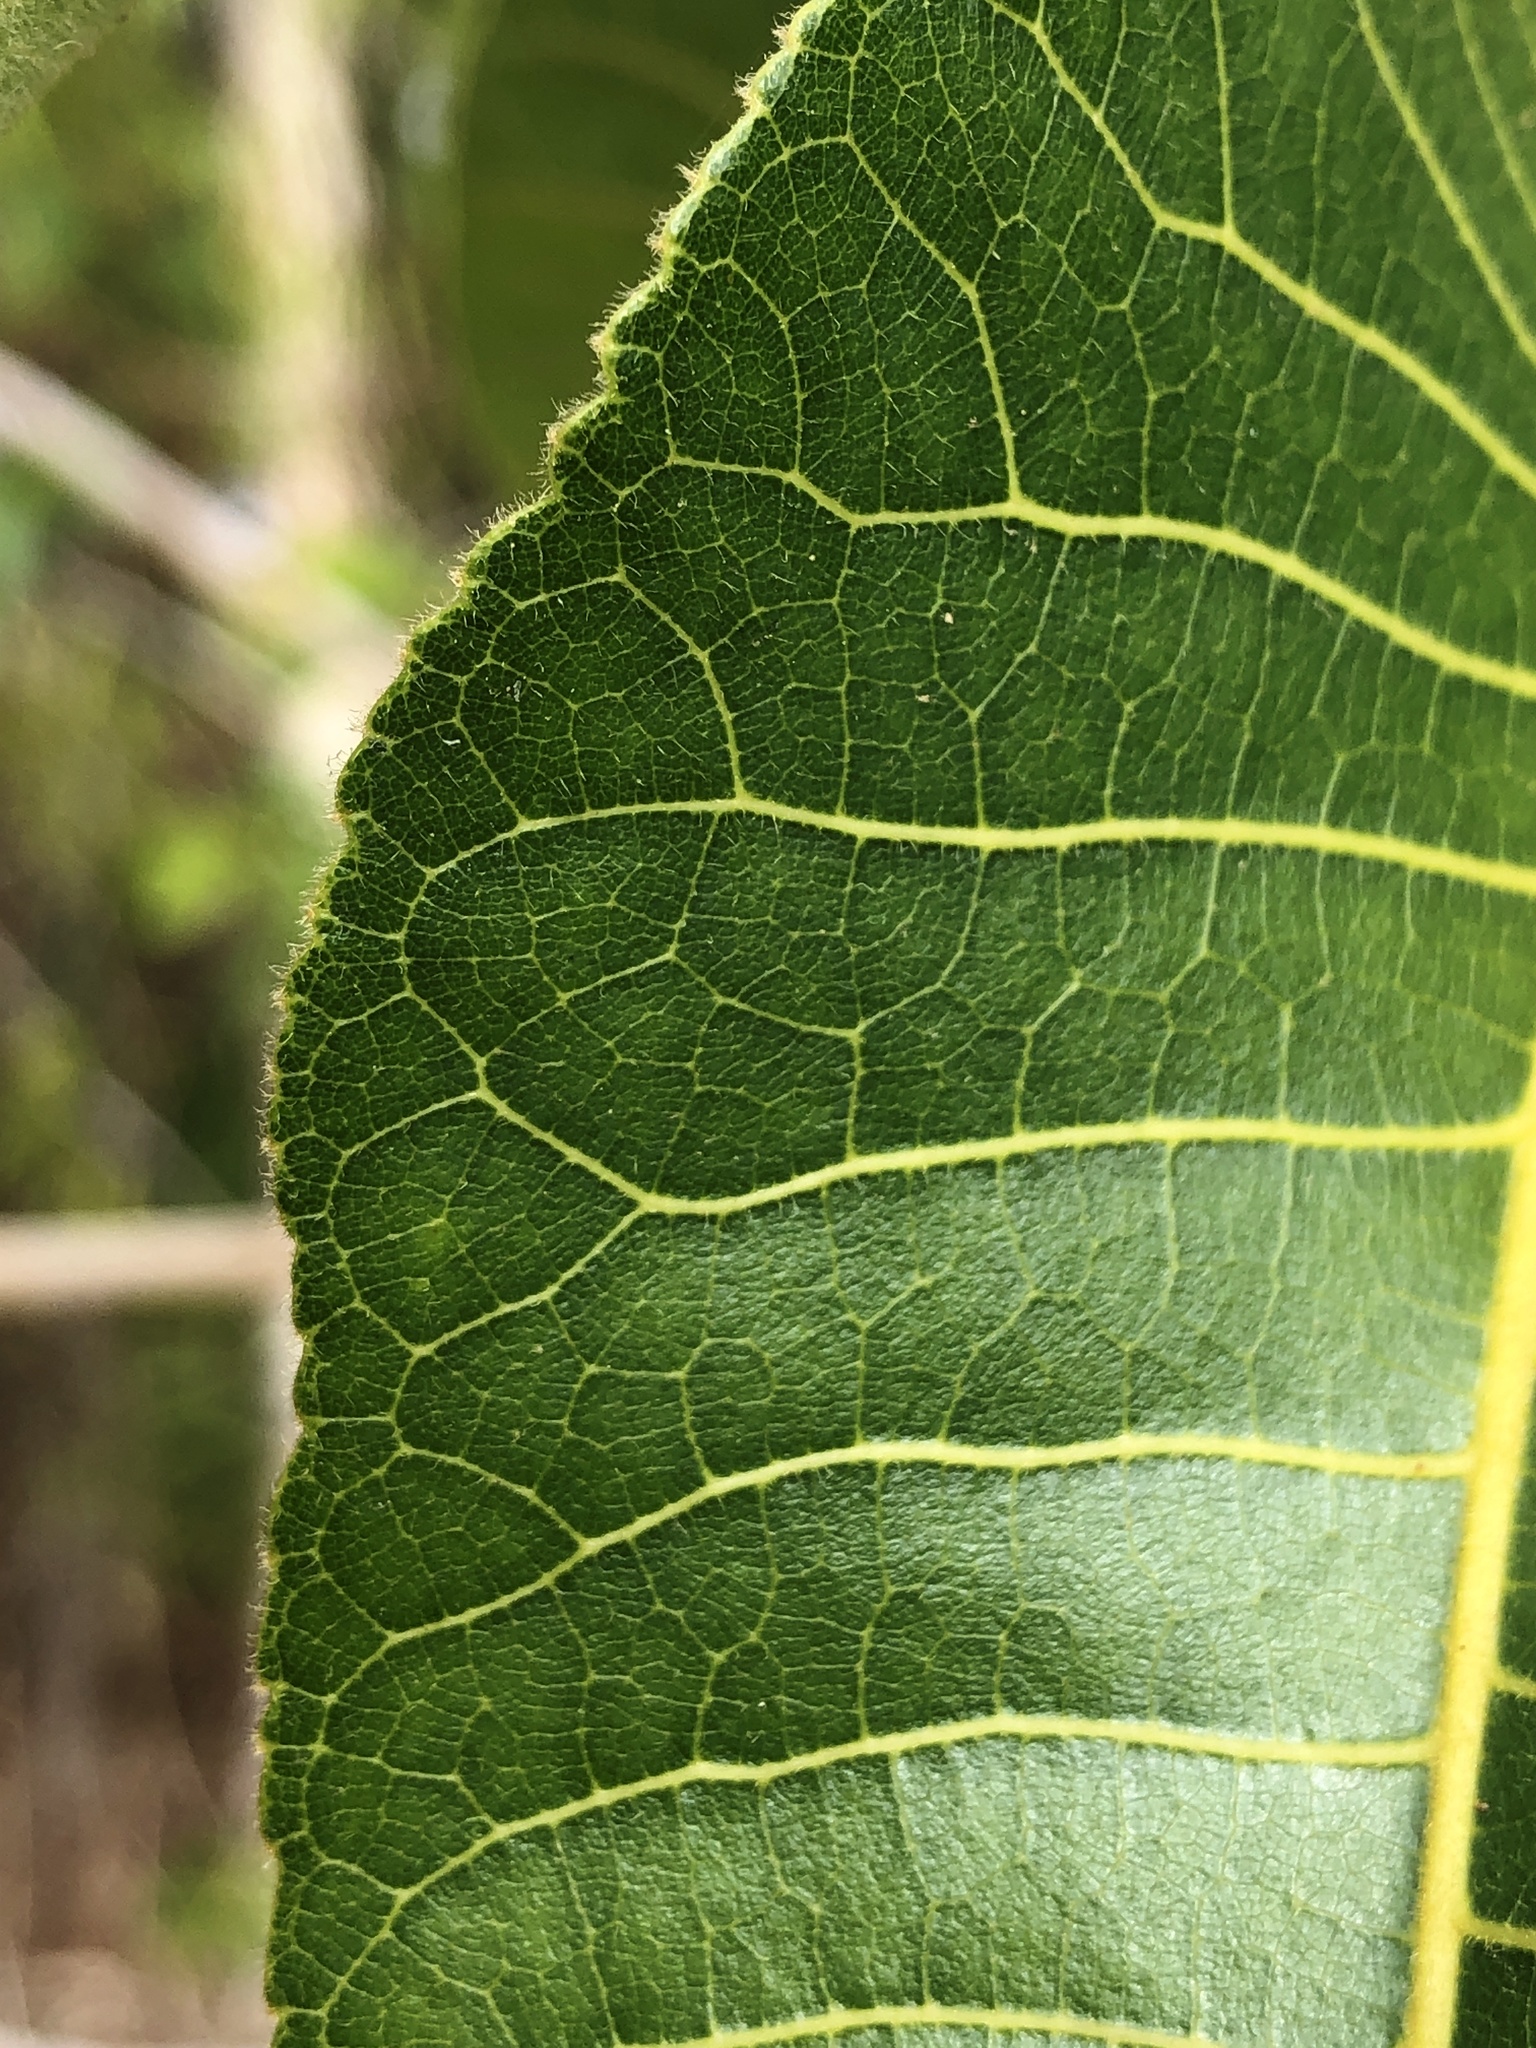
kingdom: Plantae
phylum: Tracheophyta
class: Magnoliopsida
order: Sapindales
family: Burseraceae
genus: Canarium
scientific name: Canarium australianum
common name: Island white-beech
